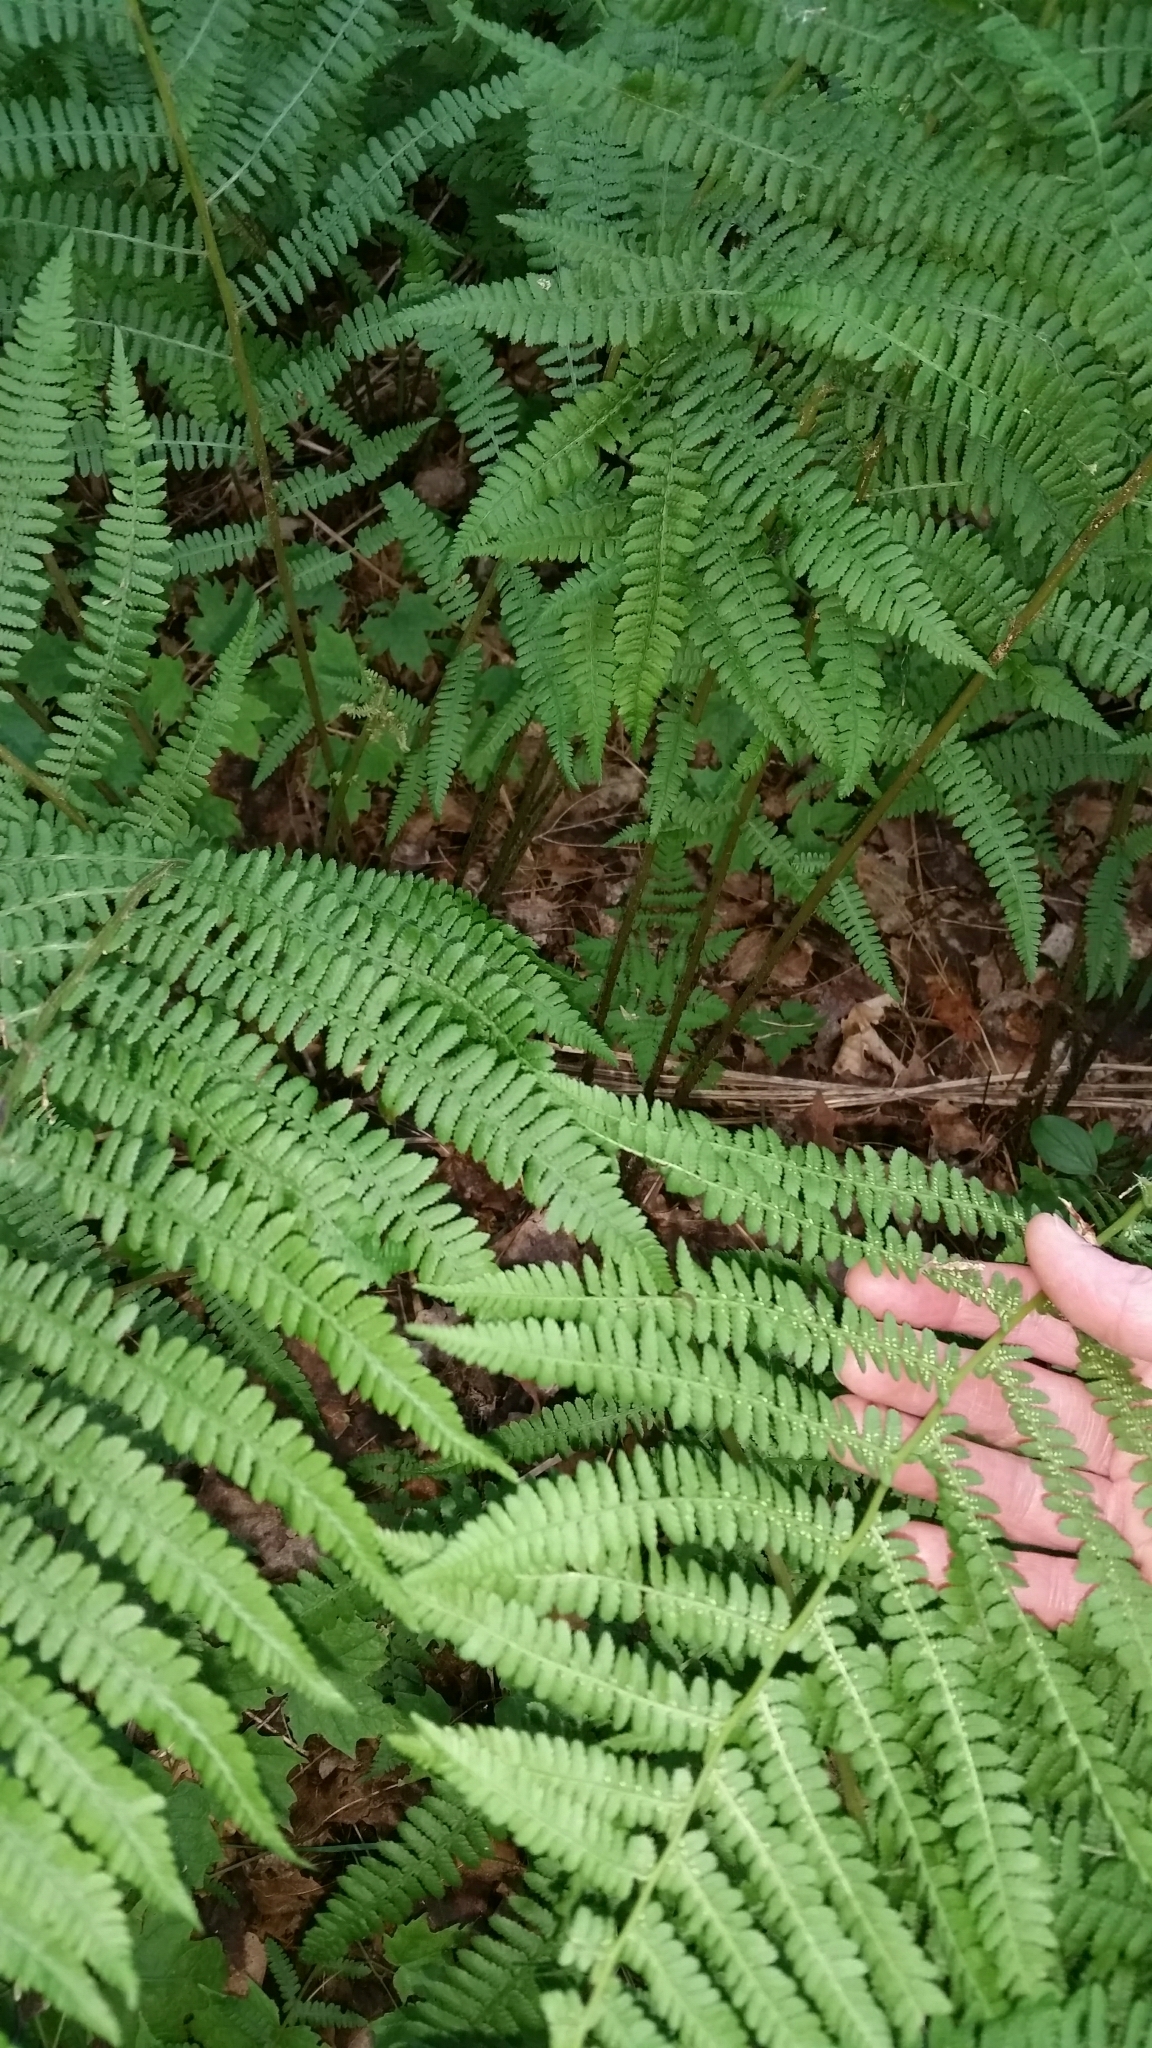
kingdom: Plantae
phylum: Tracheophyta
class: Polypodiopsida
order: Polypodiales
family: Athyriaceae
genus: Athyrium
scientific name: Athyrium angustum
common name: Northern lady fern
